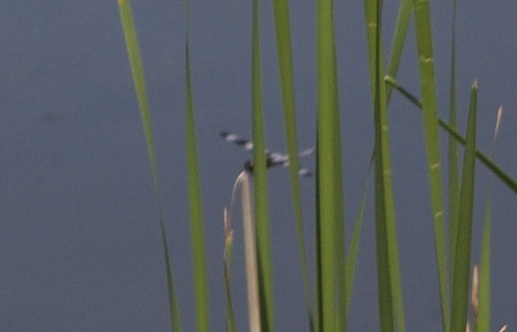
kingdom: Animalia
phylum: Arthropoda
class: Insecta
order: Odonata
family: Libellulidae
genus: Libellula
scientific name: Libellula pulchella
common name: Twelve-spotted skimmer
